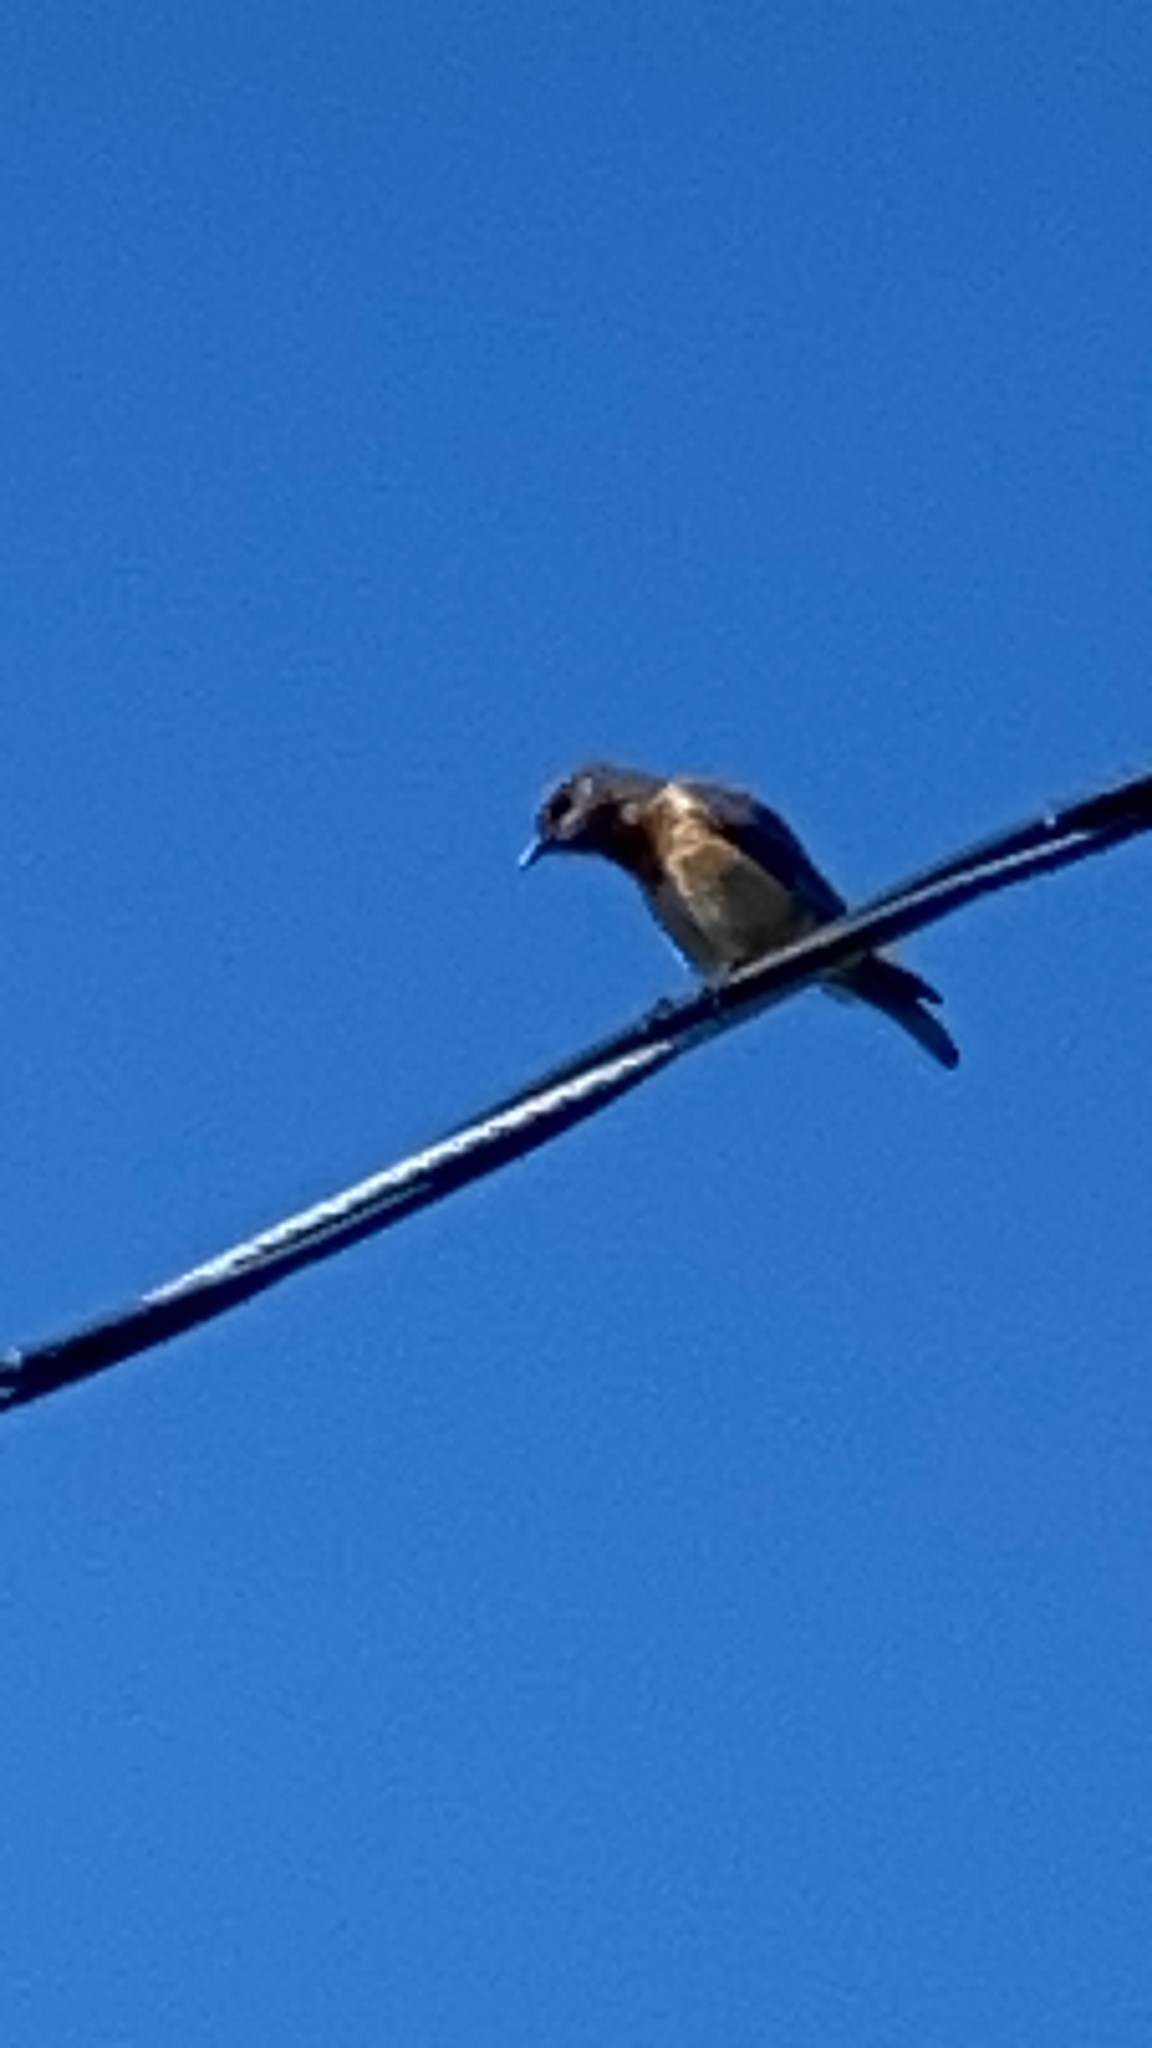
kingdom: Animalia
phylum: Chordata
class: Aves
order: Passeriformes
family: Turdidae
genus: Sialia
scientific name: Sialia mexicana
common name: Western bluebird
